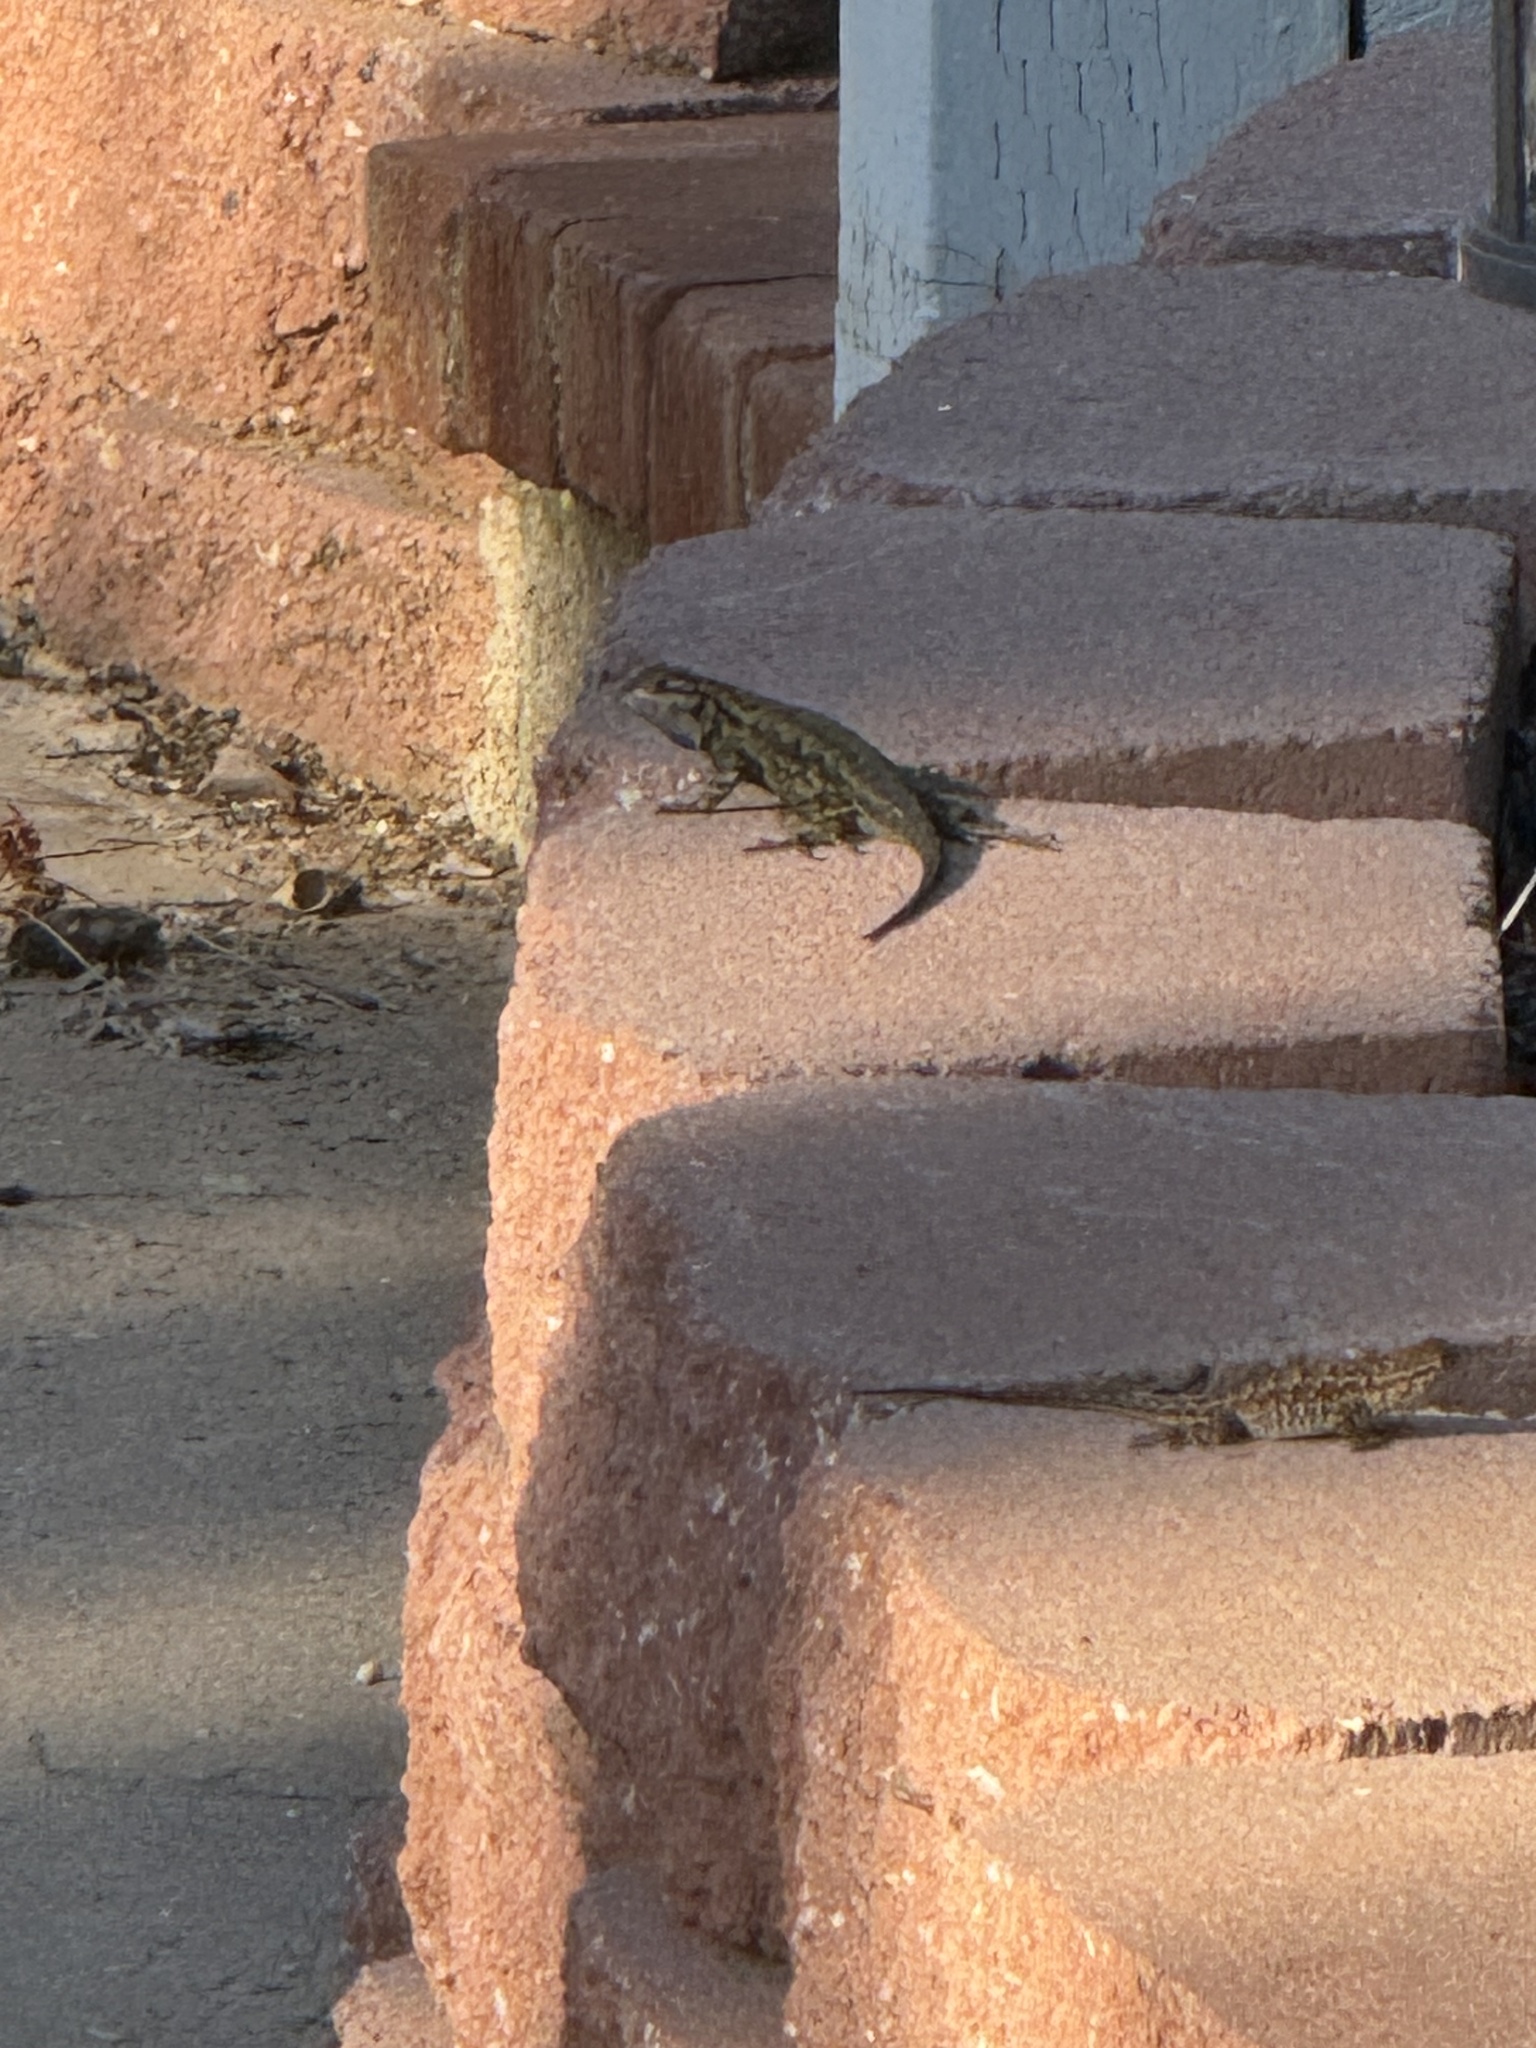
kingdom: Animalia
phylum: Chordata
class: Squamata
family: Phrynosomatidae
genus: Sceloporus
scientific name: Sceloporus occidentalis
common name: Western fence lizard
